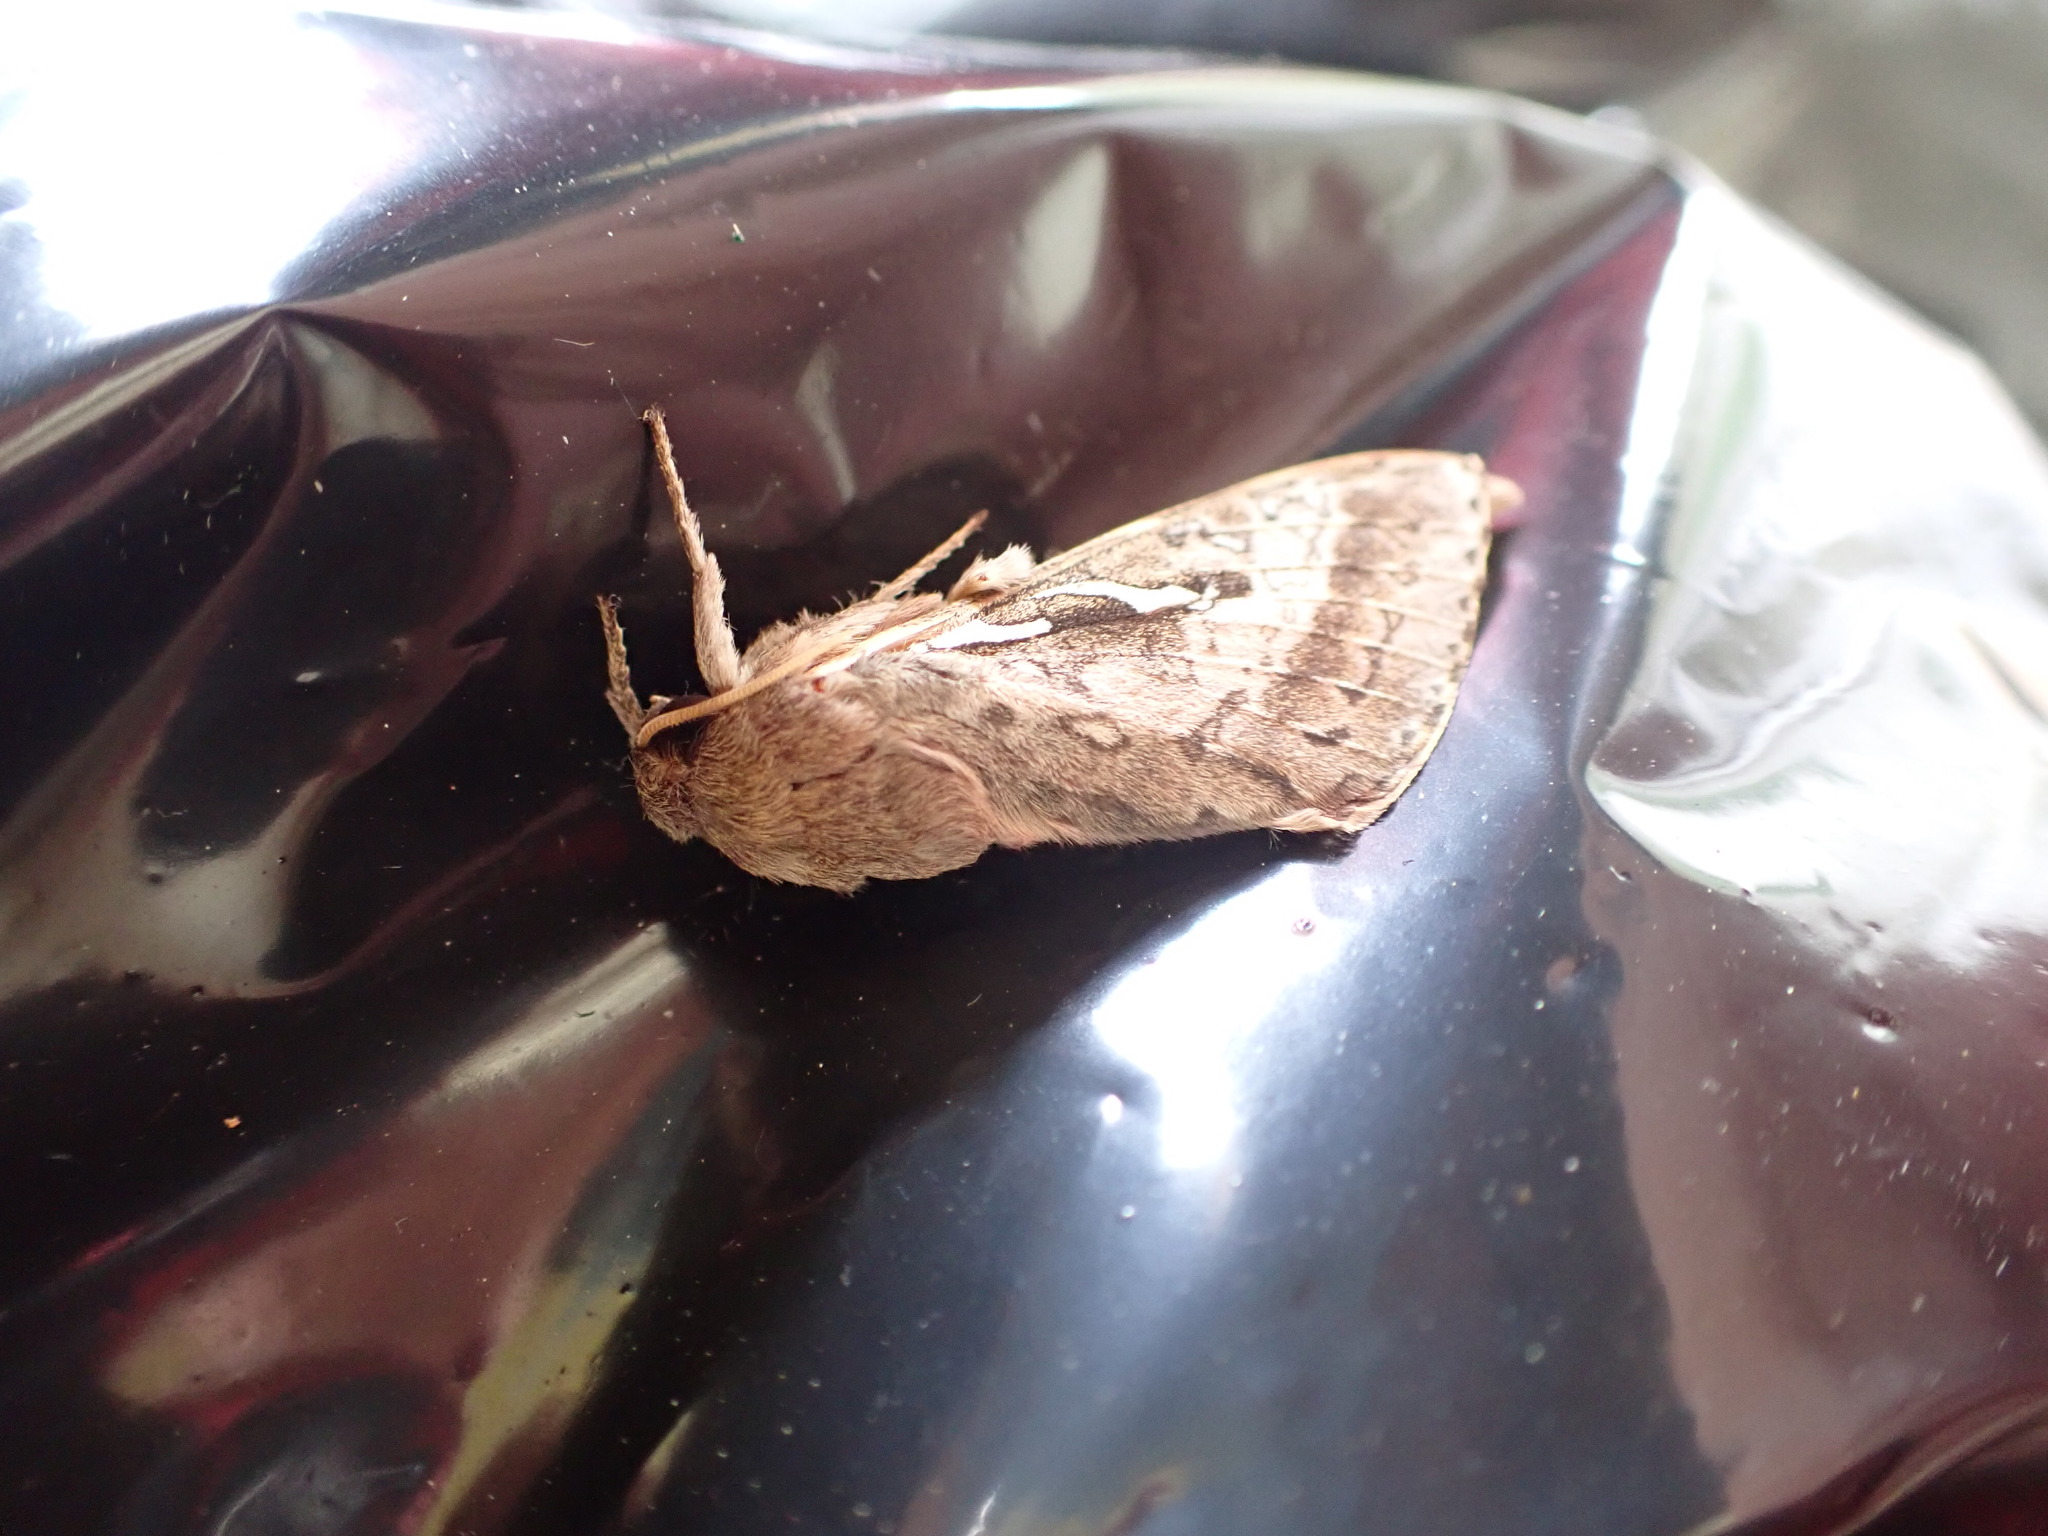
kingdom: Animalia
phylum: Arthropoda
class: Insecta
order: Lepidoptera
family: Hepialidae
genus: Wiseana
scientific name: Wiseana signata
